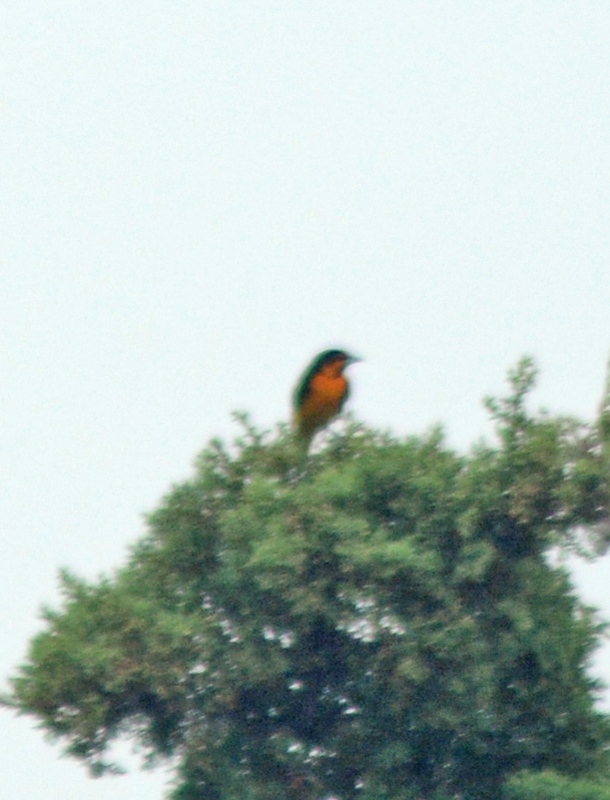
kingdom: Animalia
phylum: Chordata
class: Aves
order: Passeriformes
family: Icteridae
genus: Icterus
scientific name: Icterus abeillei
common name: Black-backed oriole
